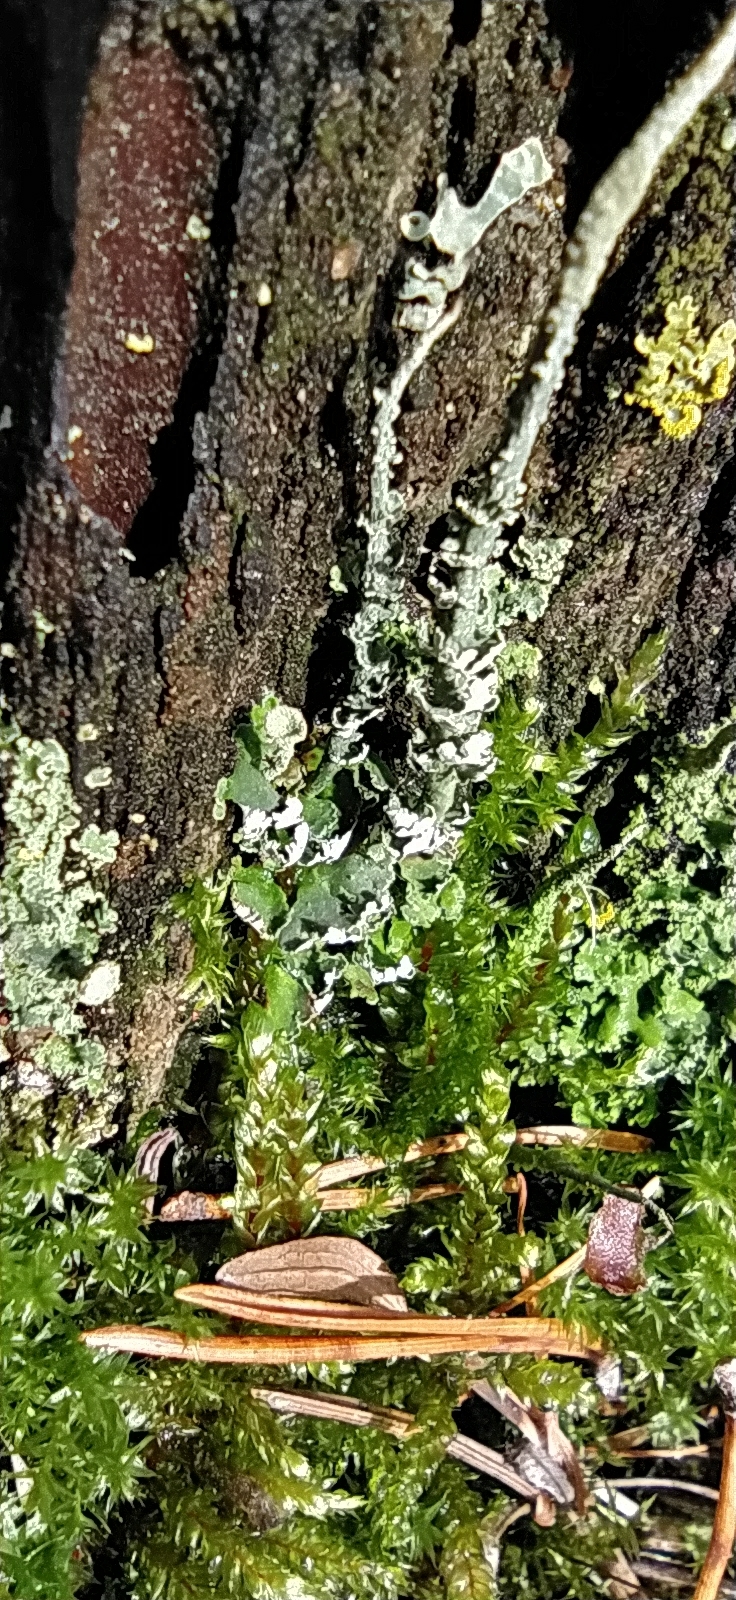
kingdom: Fungi
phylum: Ascomycota
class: Lecanoromycetes
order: Lecanorales
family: Cladoniaceae
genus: Cladonia
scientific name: Cladonia cornuta
